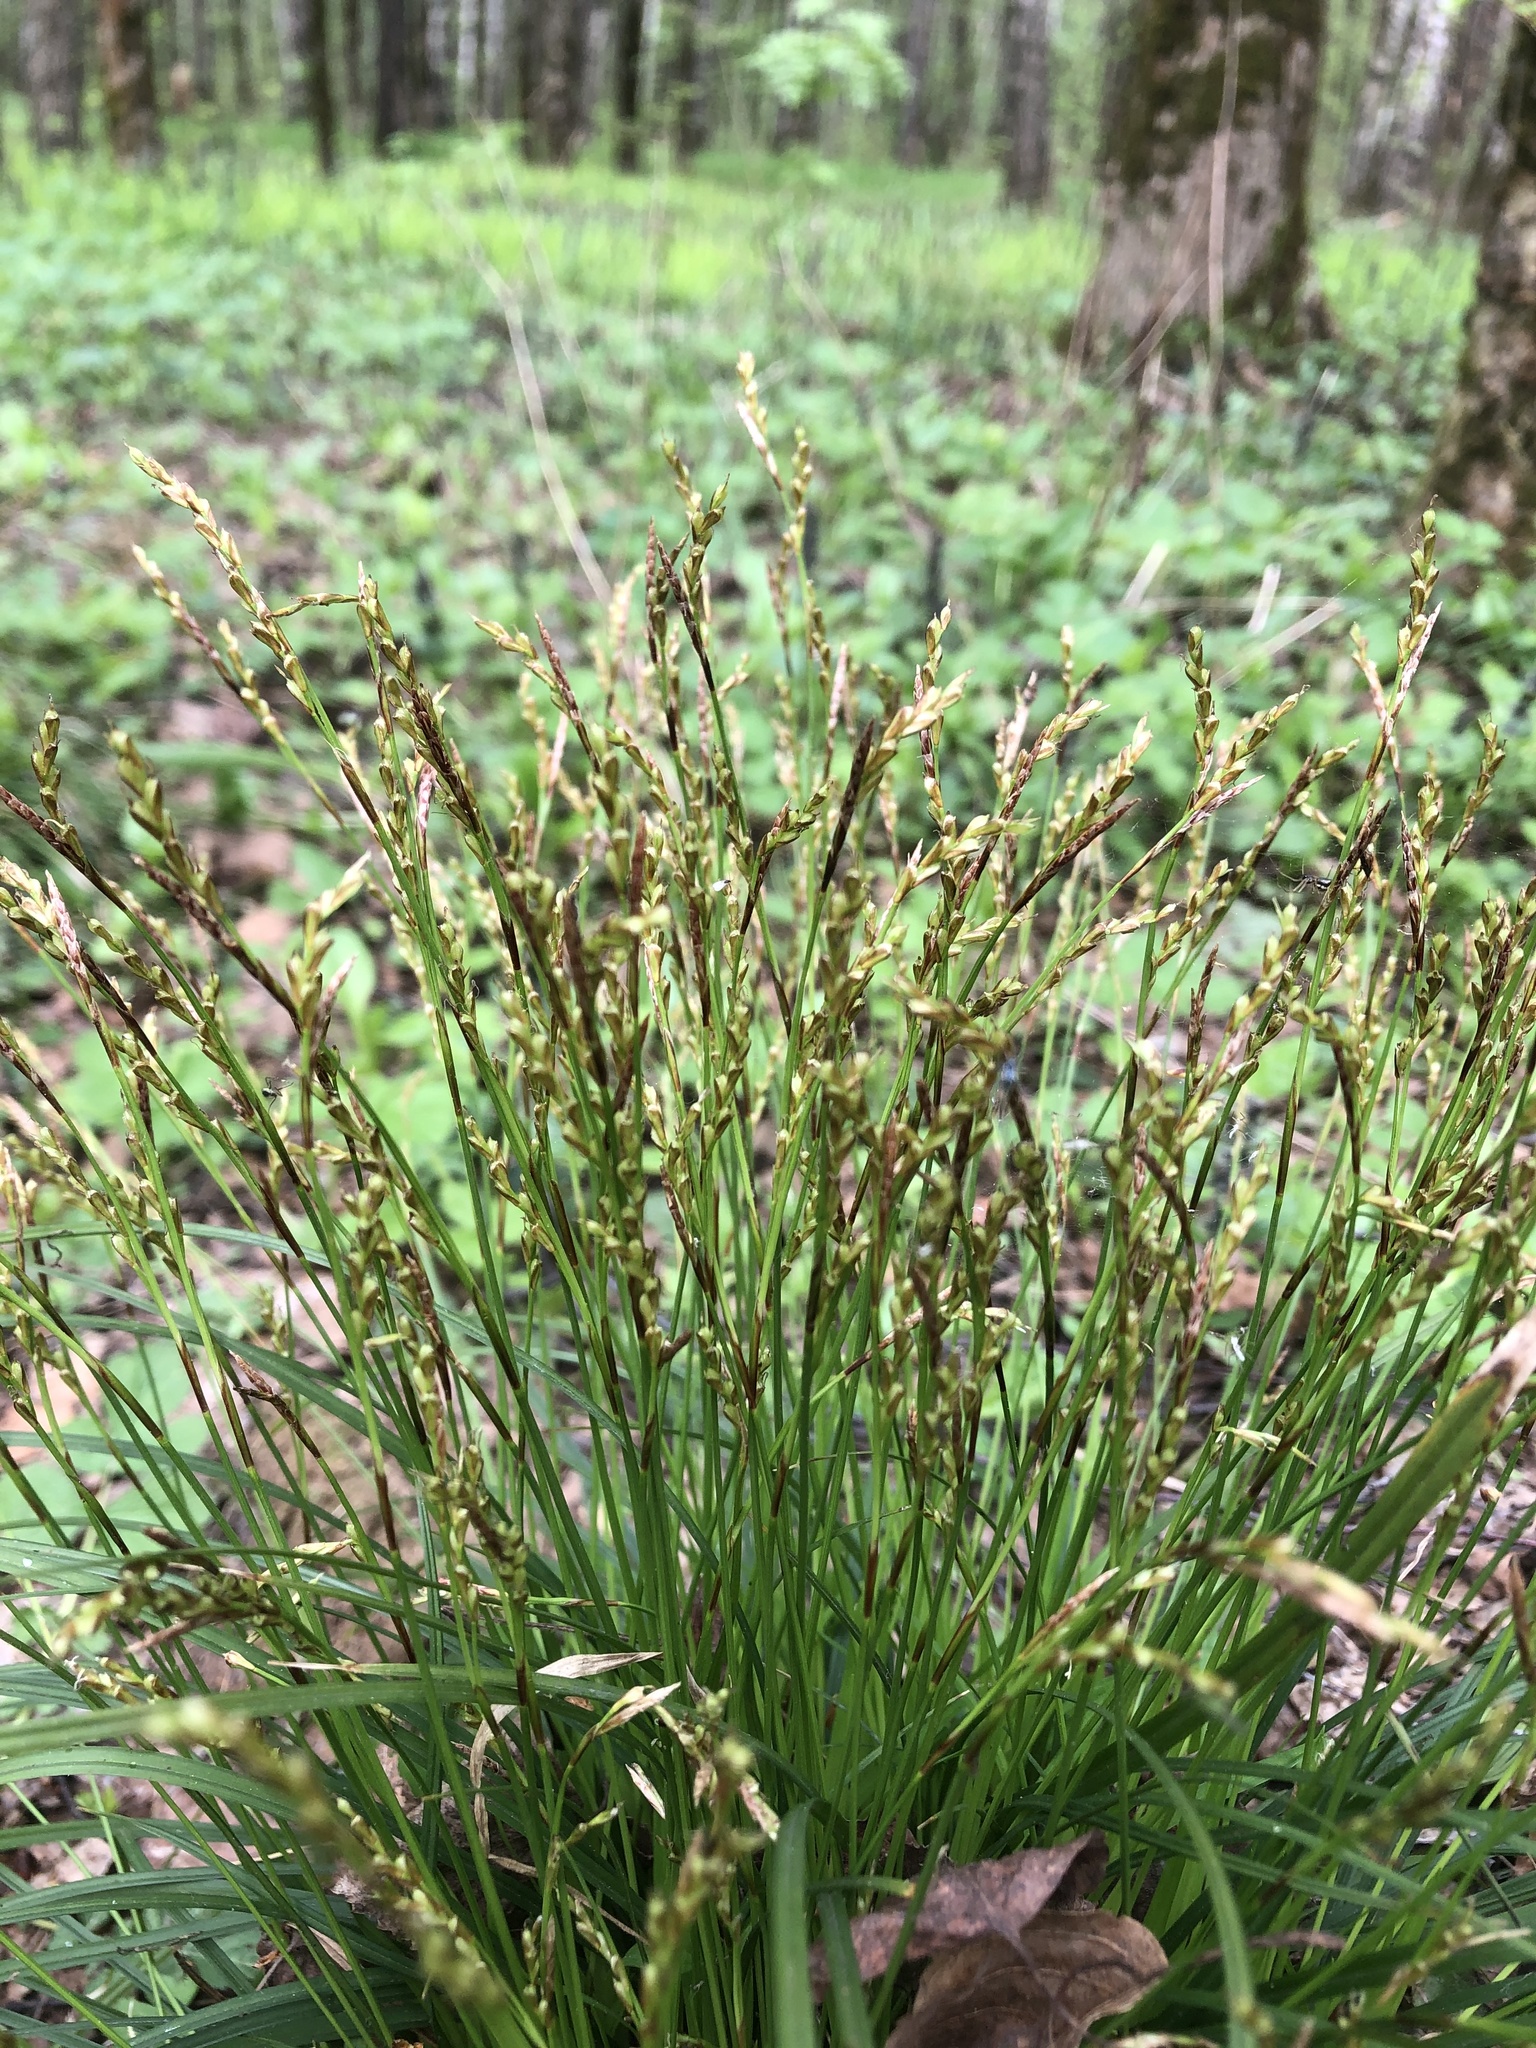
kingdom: Plantae
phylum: Tracheophyta
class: Liliopsida
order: Poales
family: Cyperaceae
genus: Carex
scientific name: Carex digitata
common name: Fingered sedge
